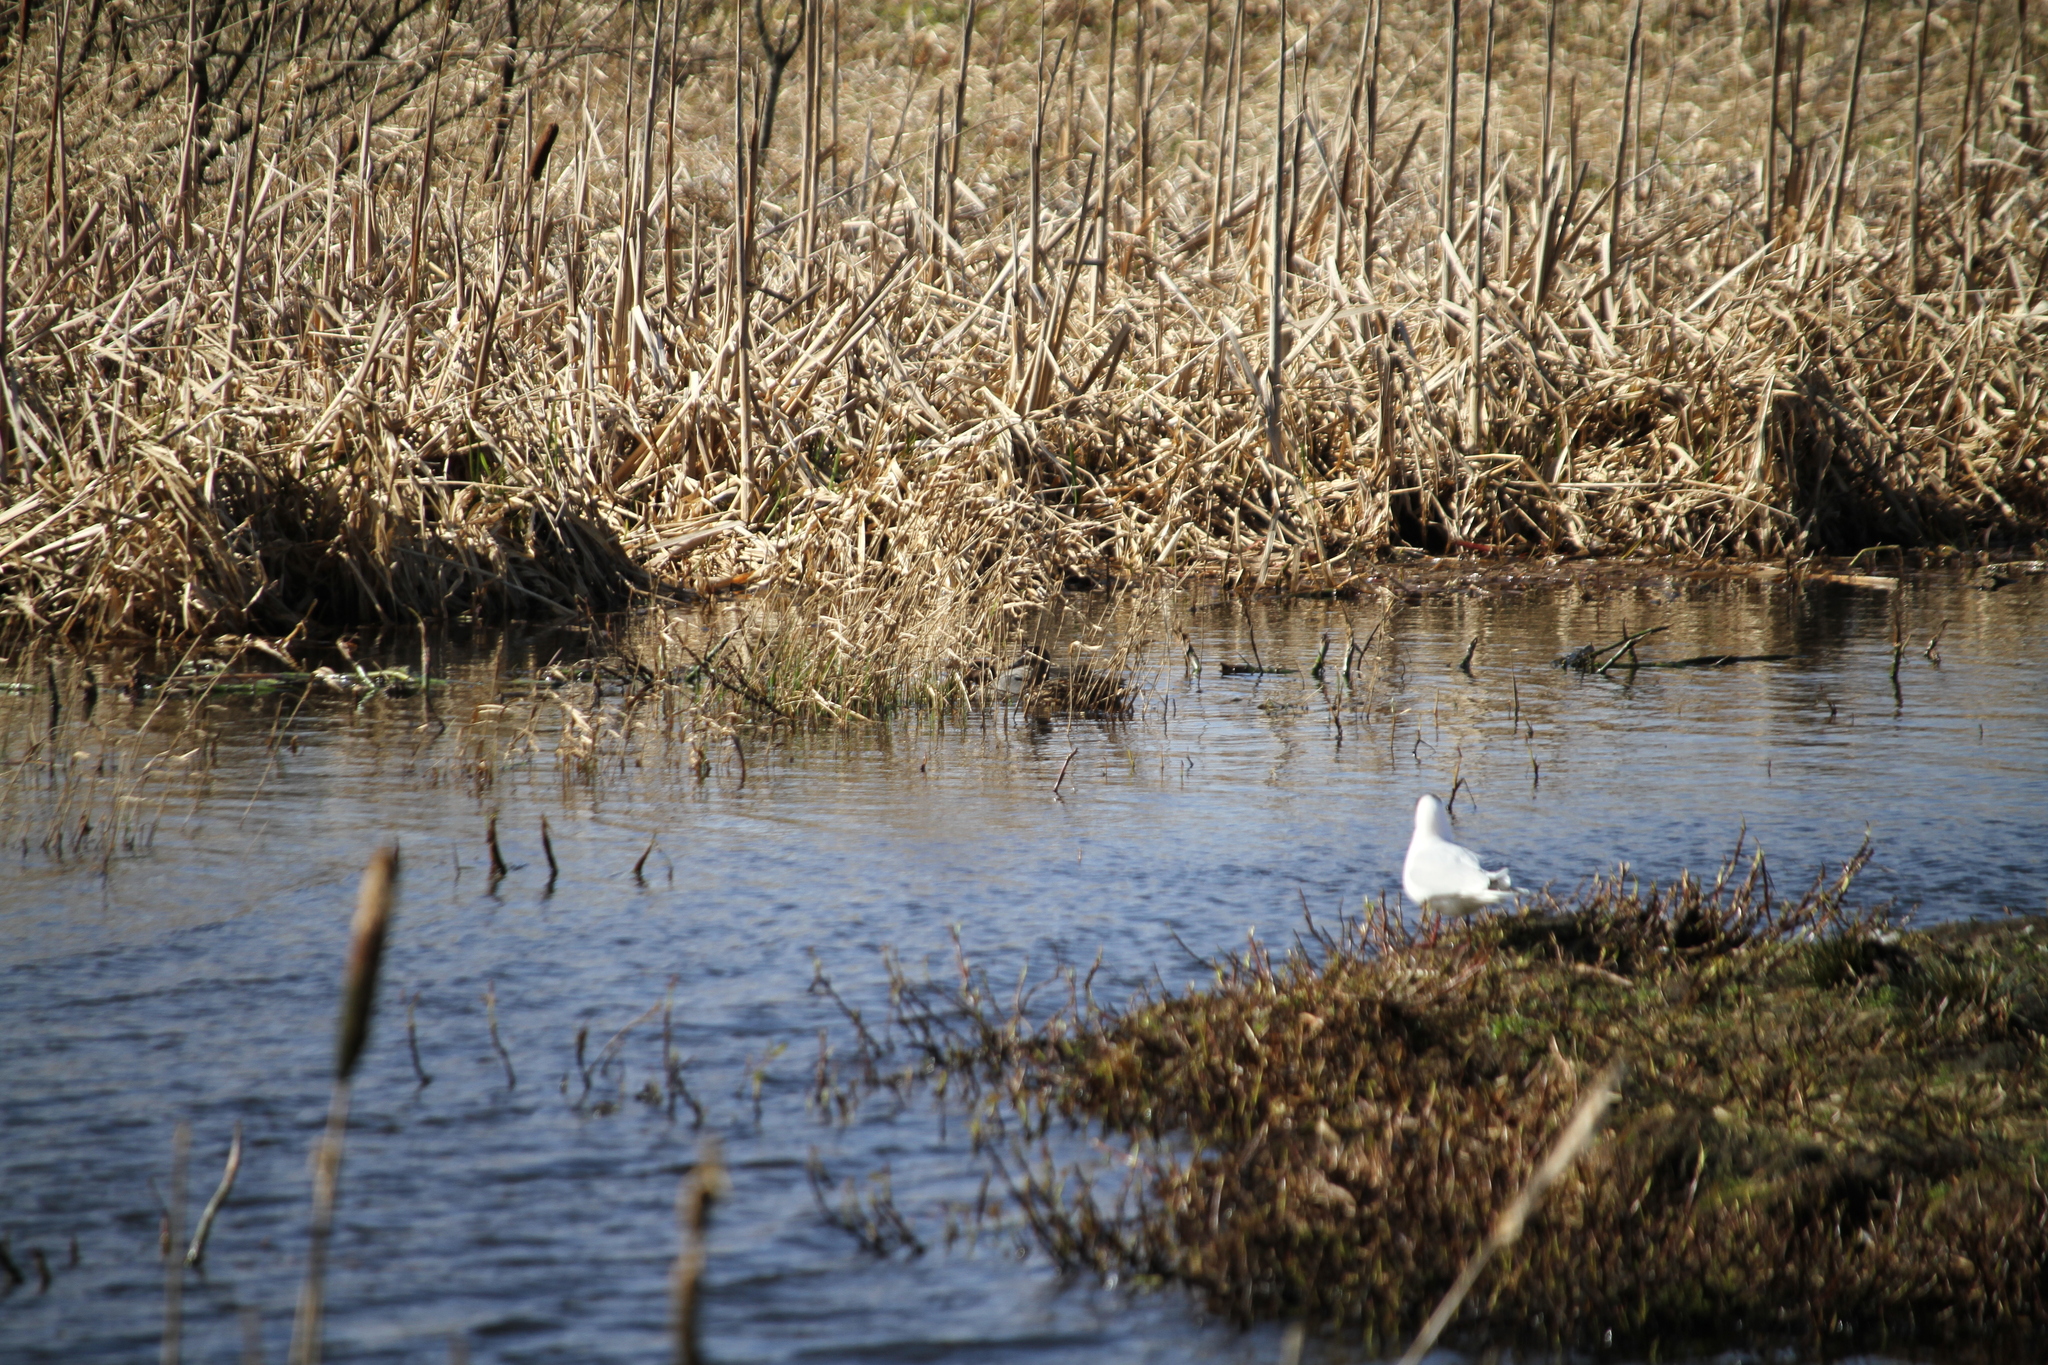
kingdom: Animalia
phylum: Chordata
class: Aves
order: Charadriiformes
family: Laridae
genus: Chroicocephalus
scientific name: Chroicocephalus ridibundus
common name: Black-headed gull
